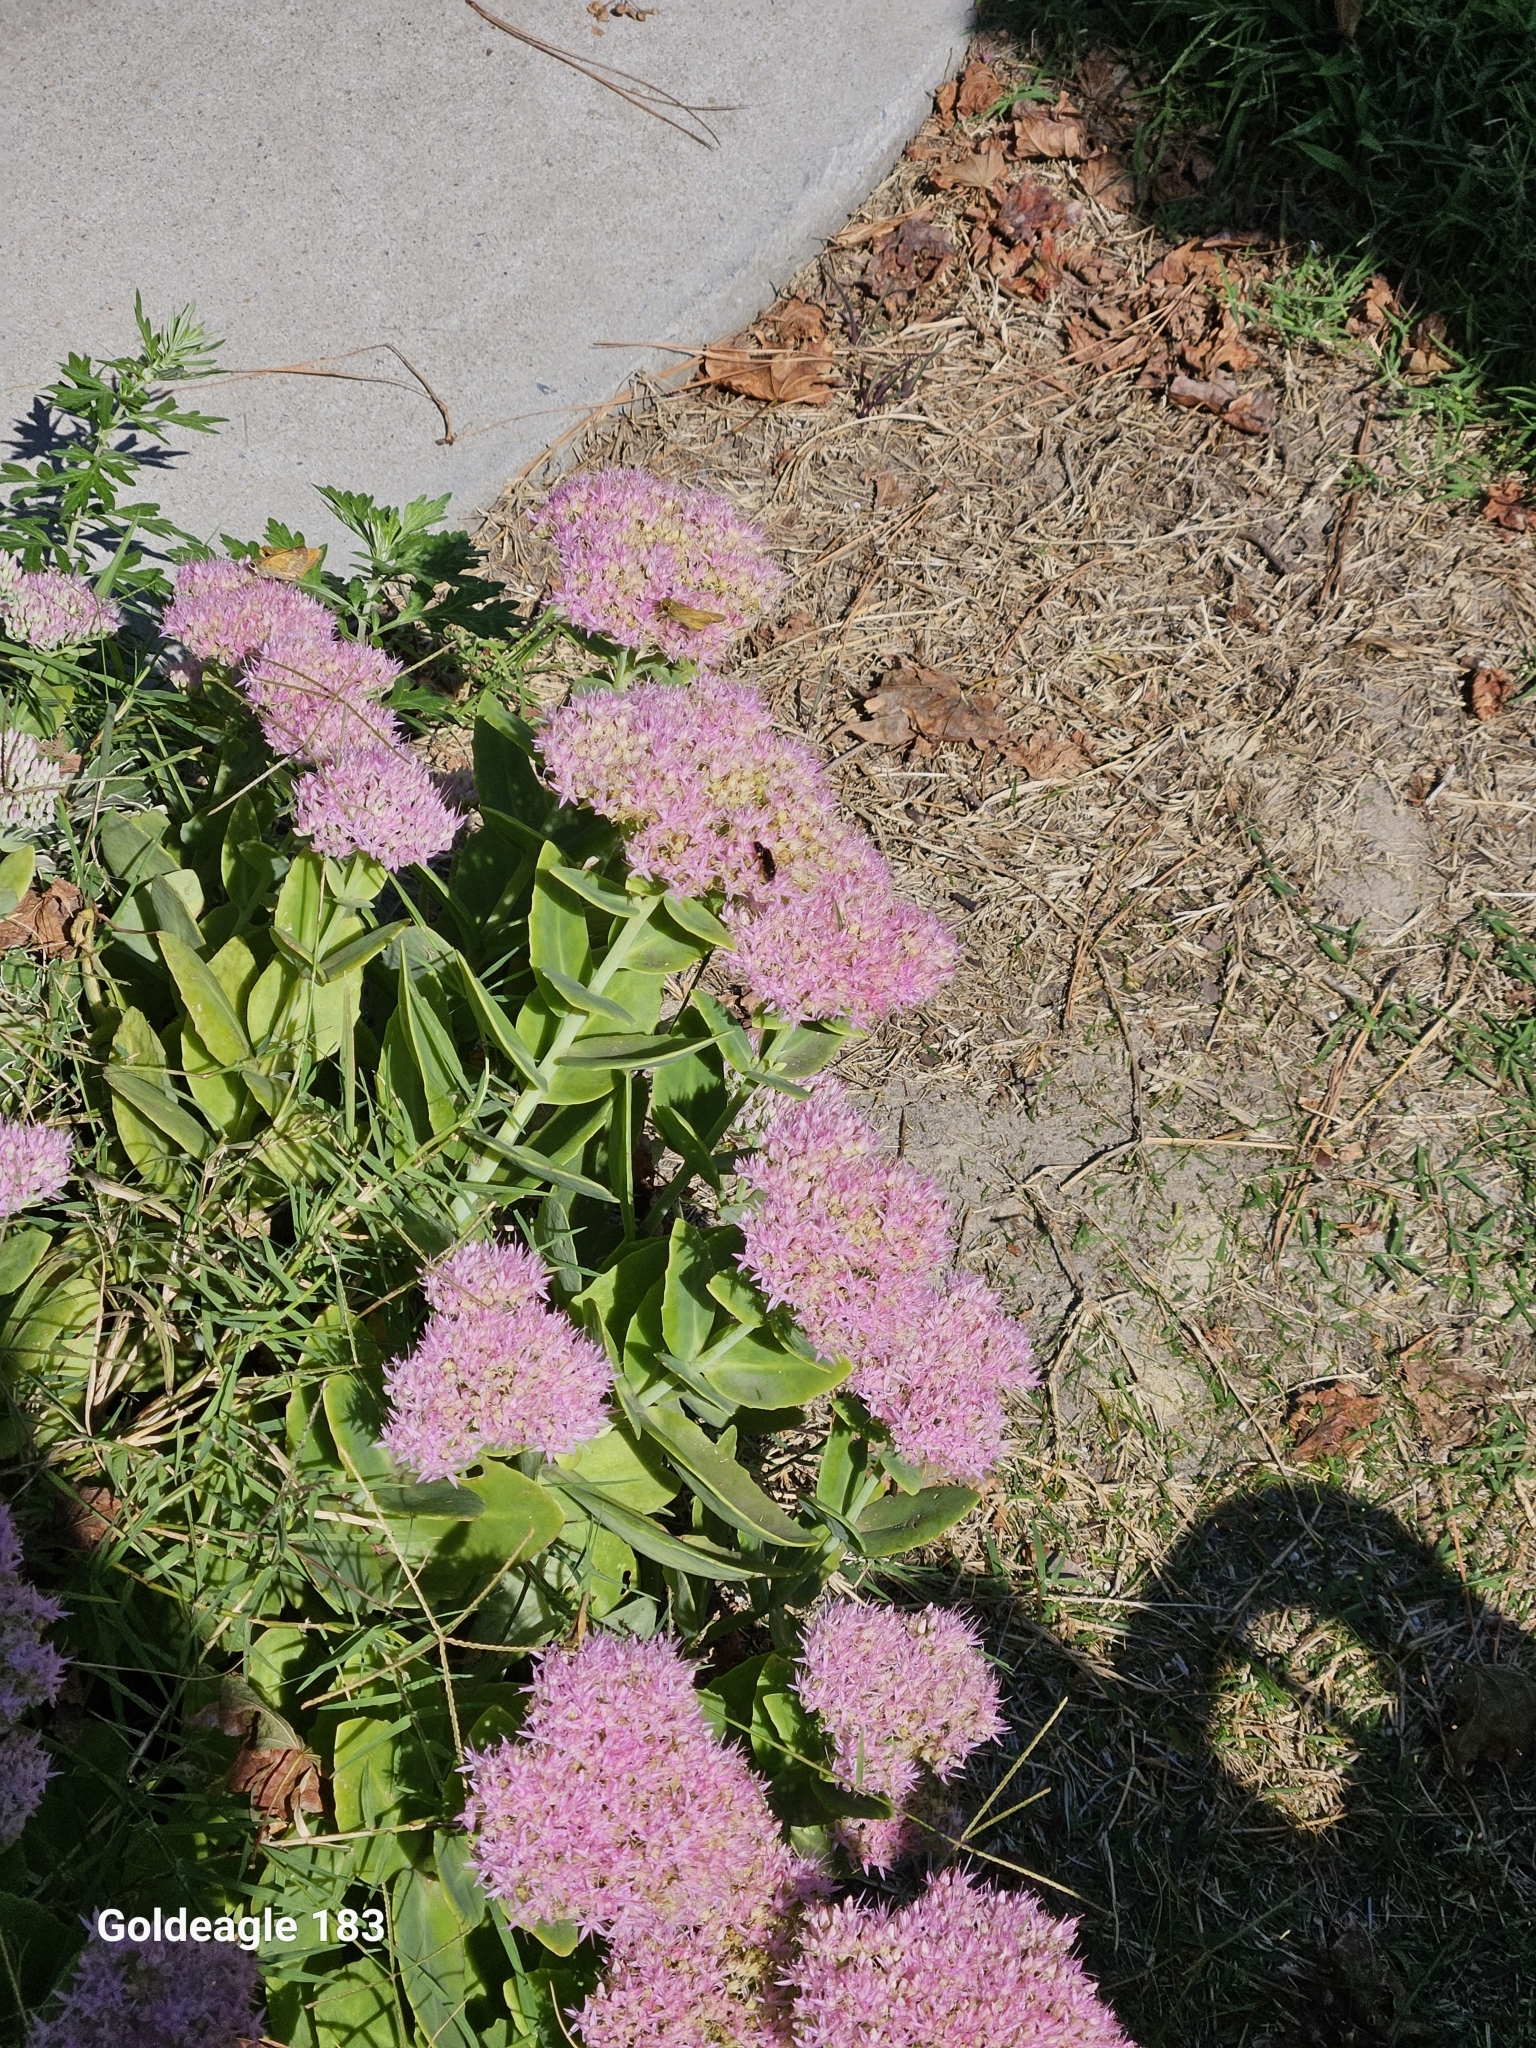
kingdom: Plantae
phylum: Tracheophyta
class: Magnoliopsida
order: Saxifragales
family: Crassulaceae
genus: Hylotelephium
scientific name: Hylotelephium spectabile
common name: Showy stonecrop
